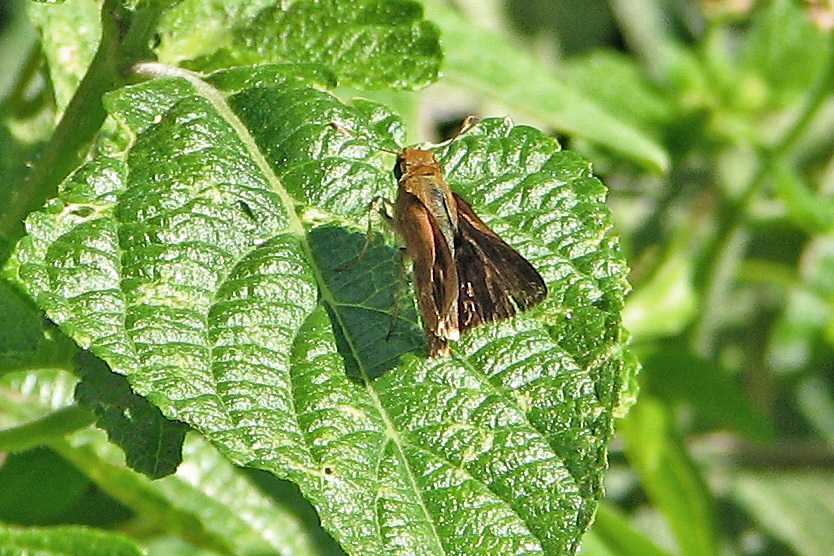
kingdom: Animalia
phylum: Arthropoda
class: Insecta
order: Lepidoptera
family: Hesperiidae
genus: Polites
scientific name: Polites premnas
